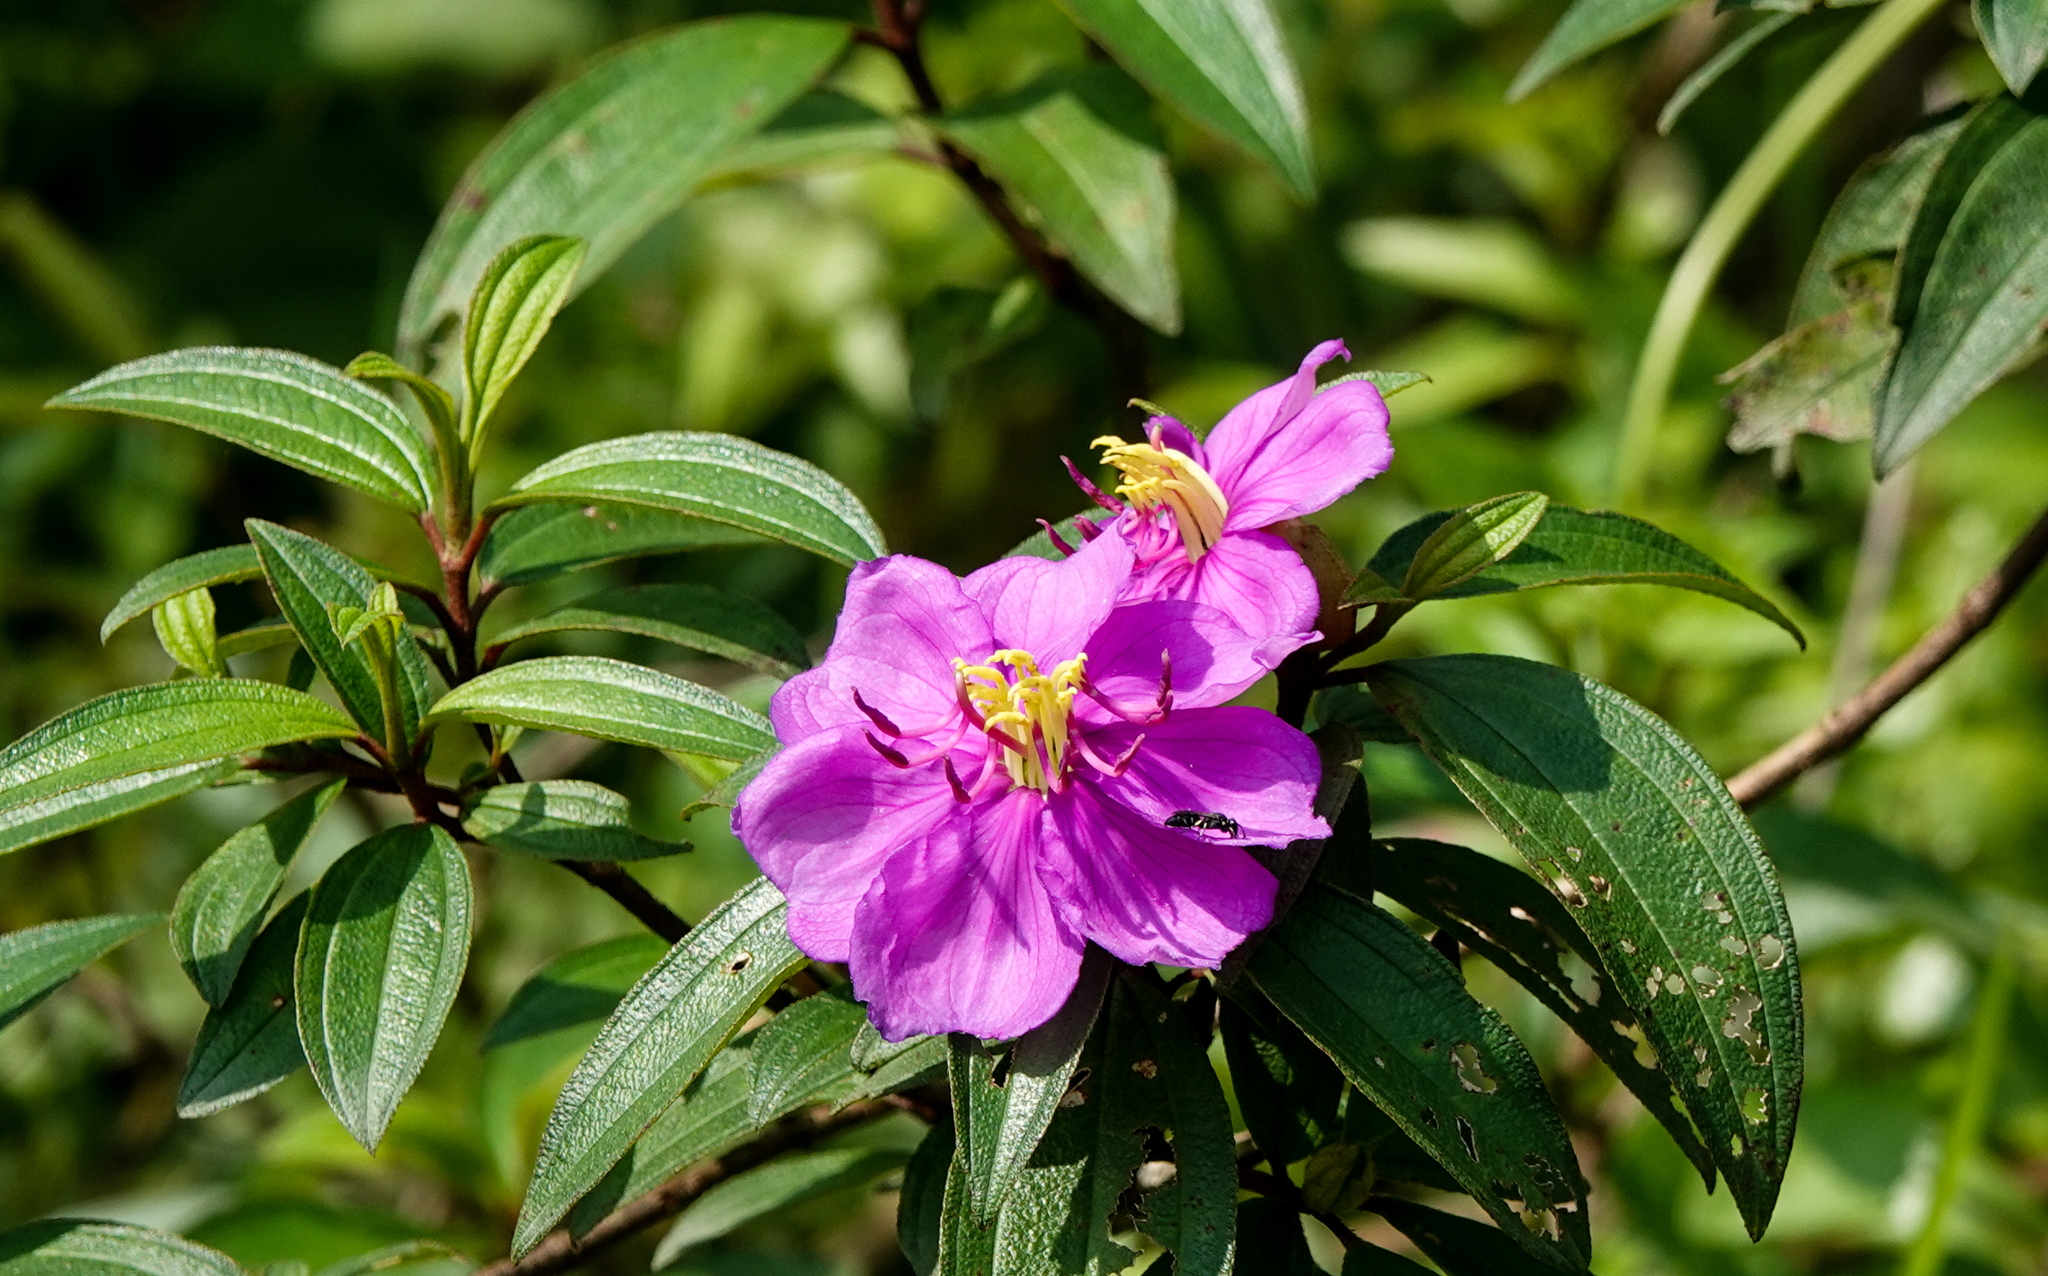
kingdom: Plantae
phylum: Tracheophyta
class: Magnoliopsida
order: Myrtales
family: Melastomataceae
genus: Melastoma
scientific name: Melastoma malabathricum
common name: Indian-rhododendron
